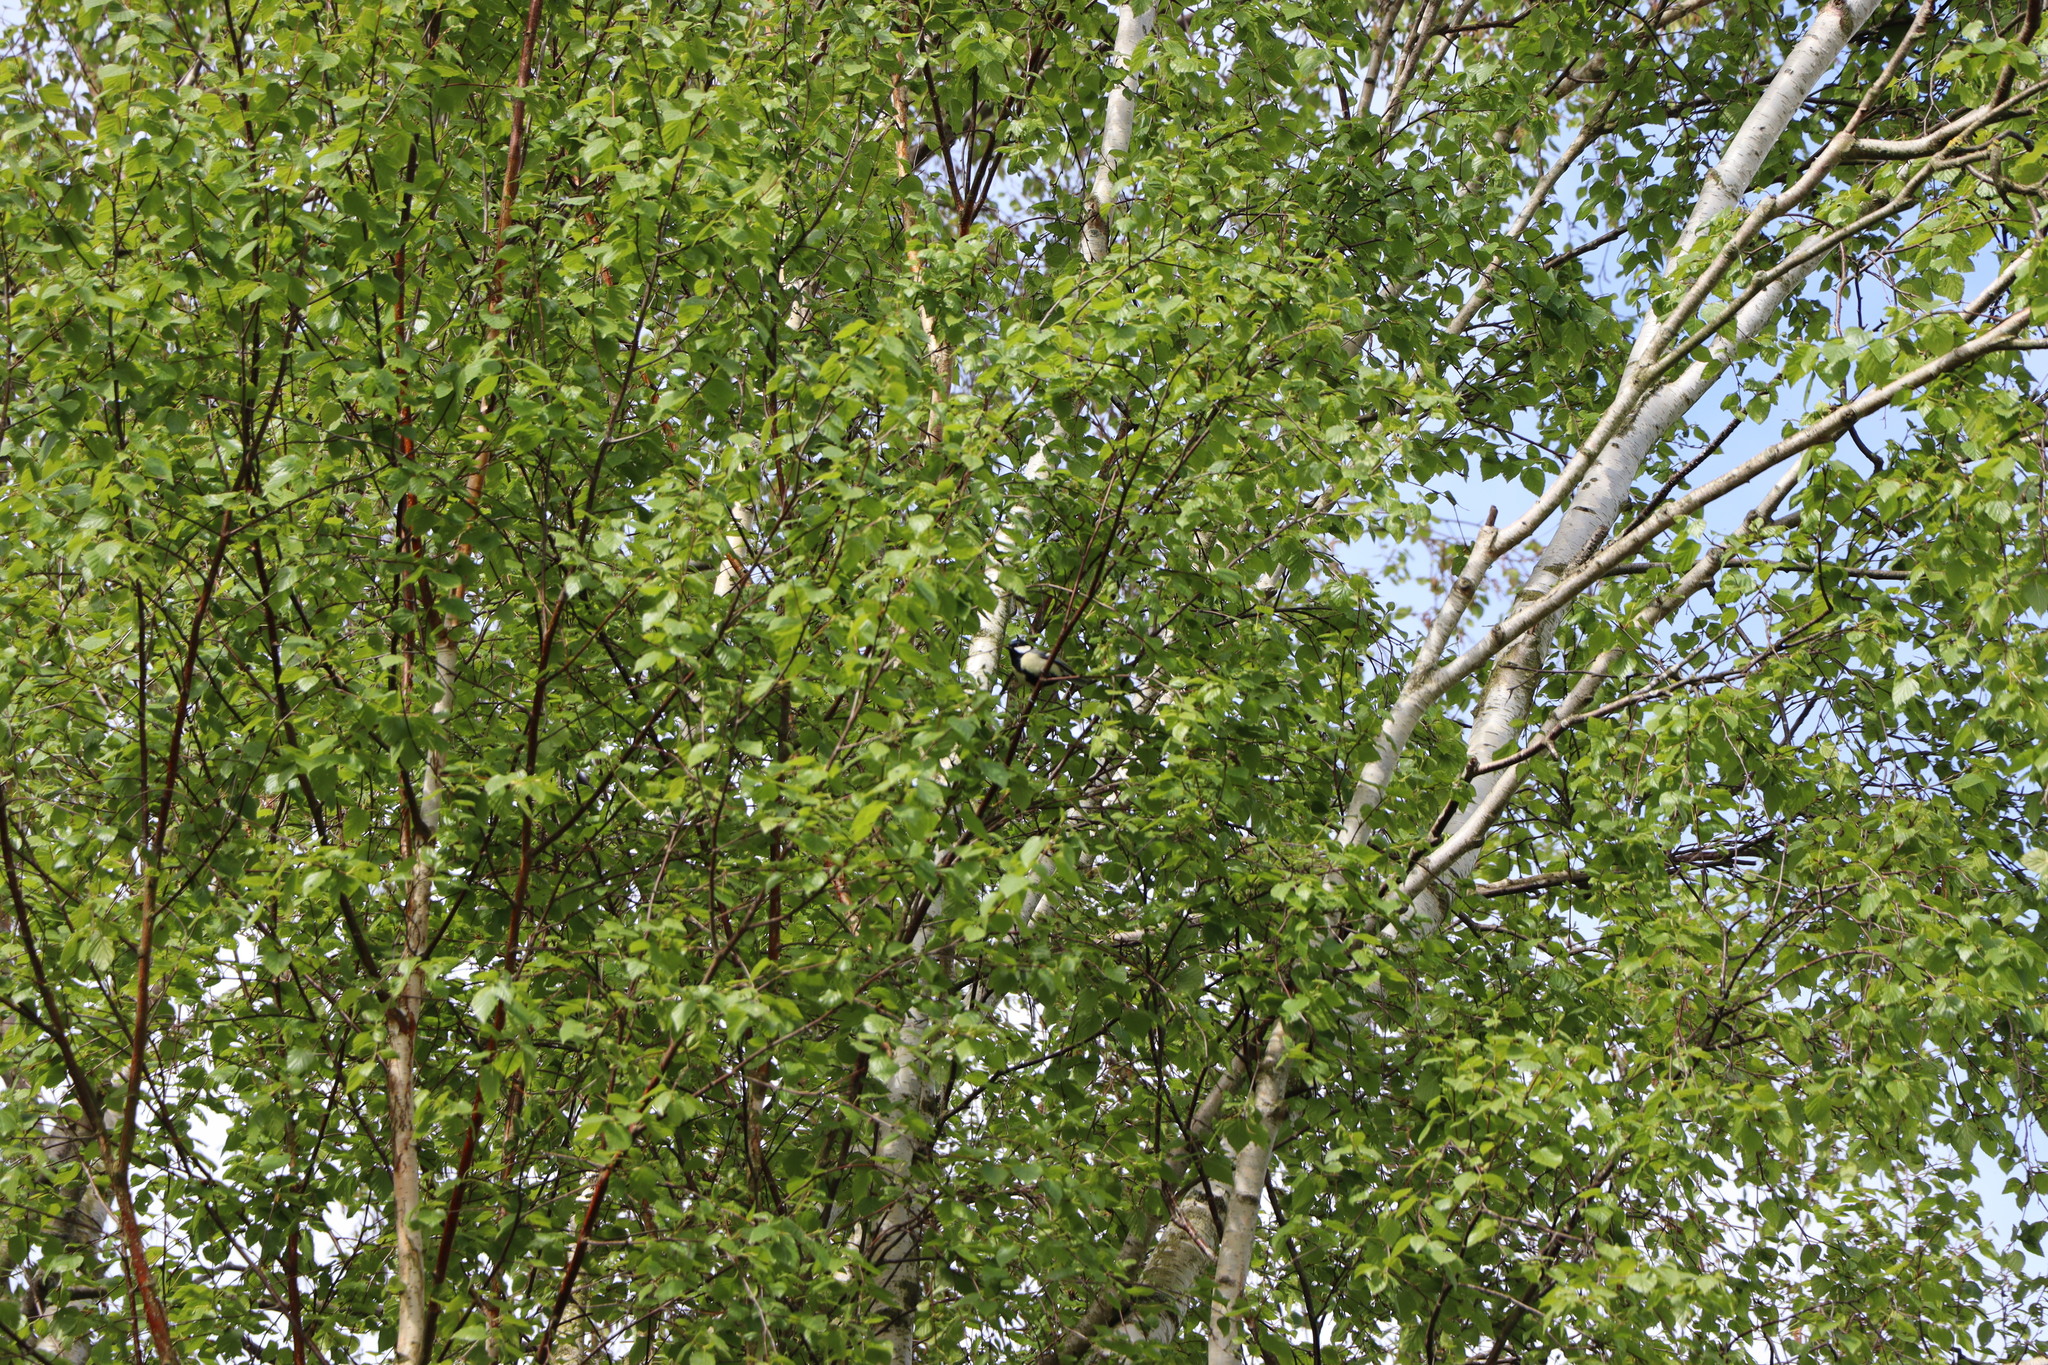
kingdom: Animalia
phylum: Chordata
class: Aves
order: Passeriformes
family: Paridae
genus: Parus
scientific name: Parus major
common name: Great tit
